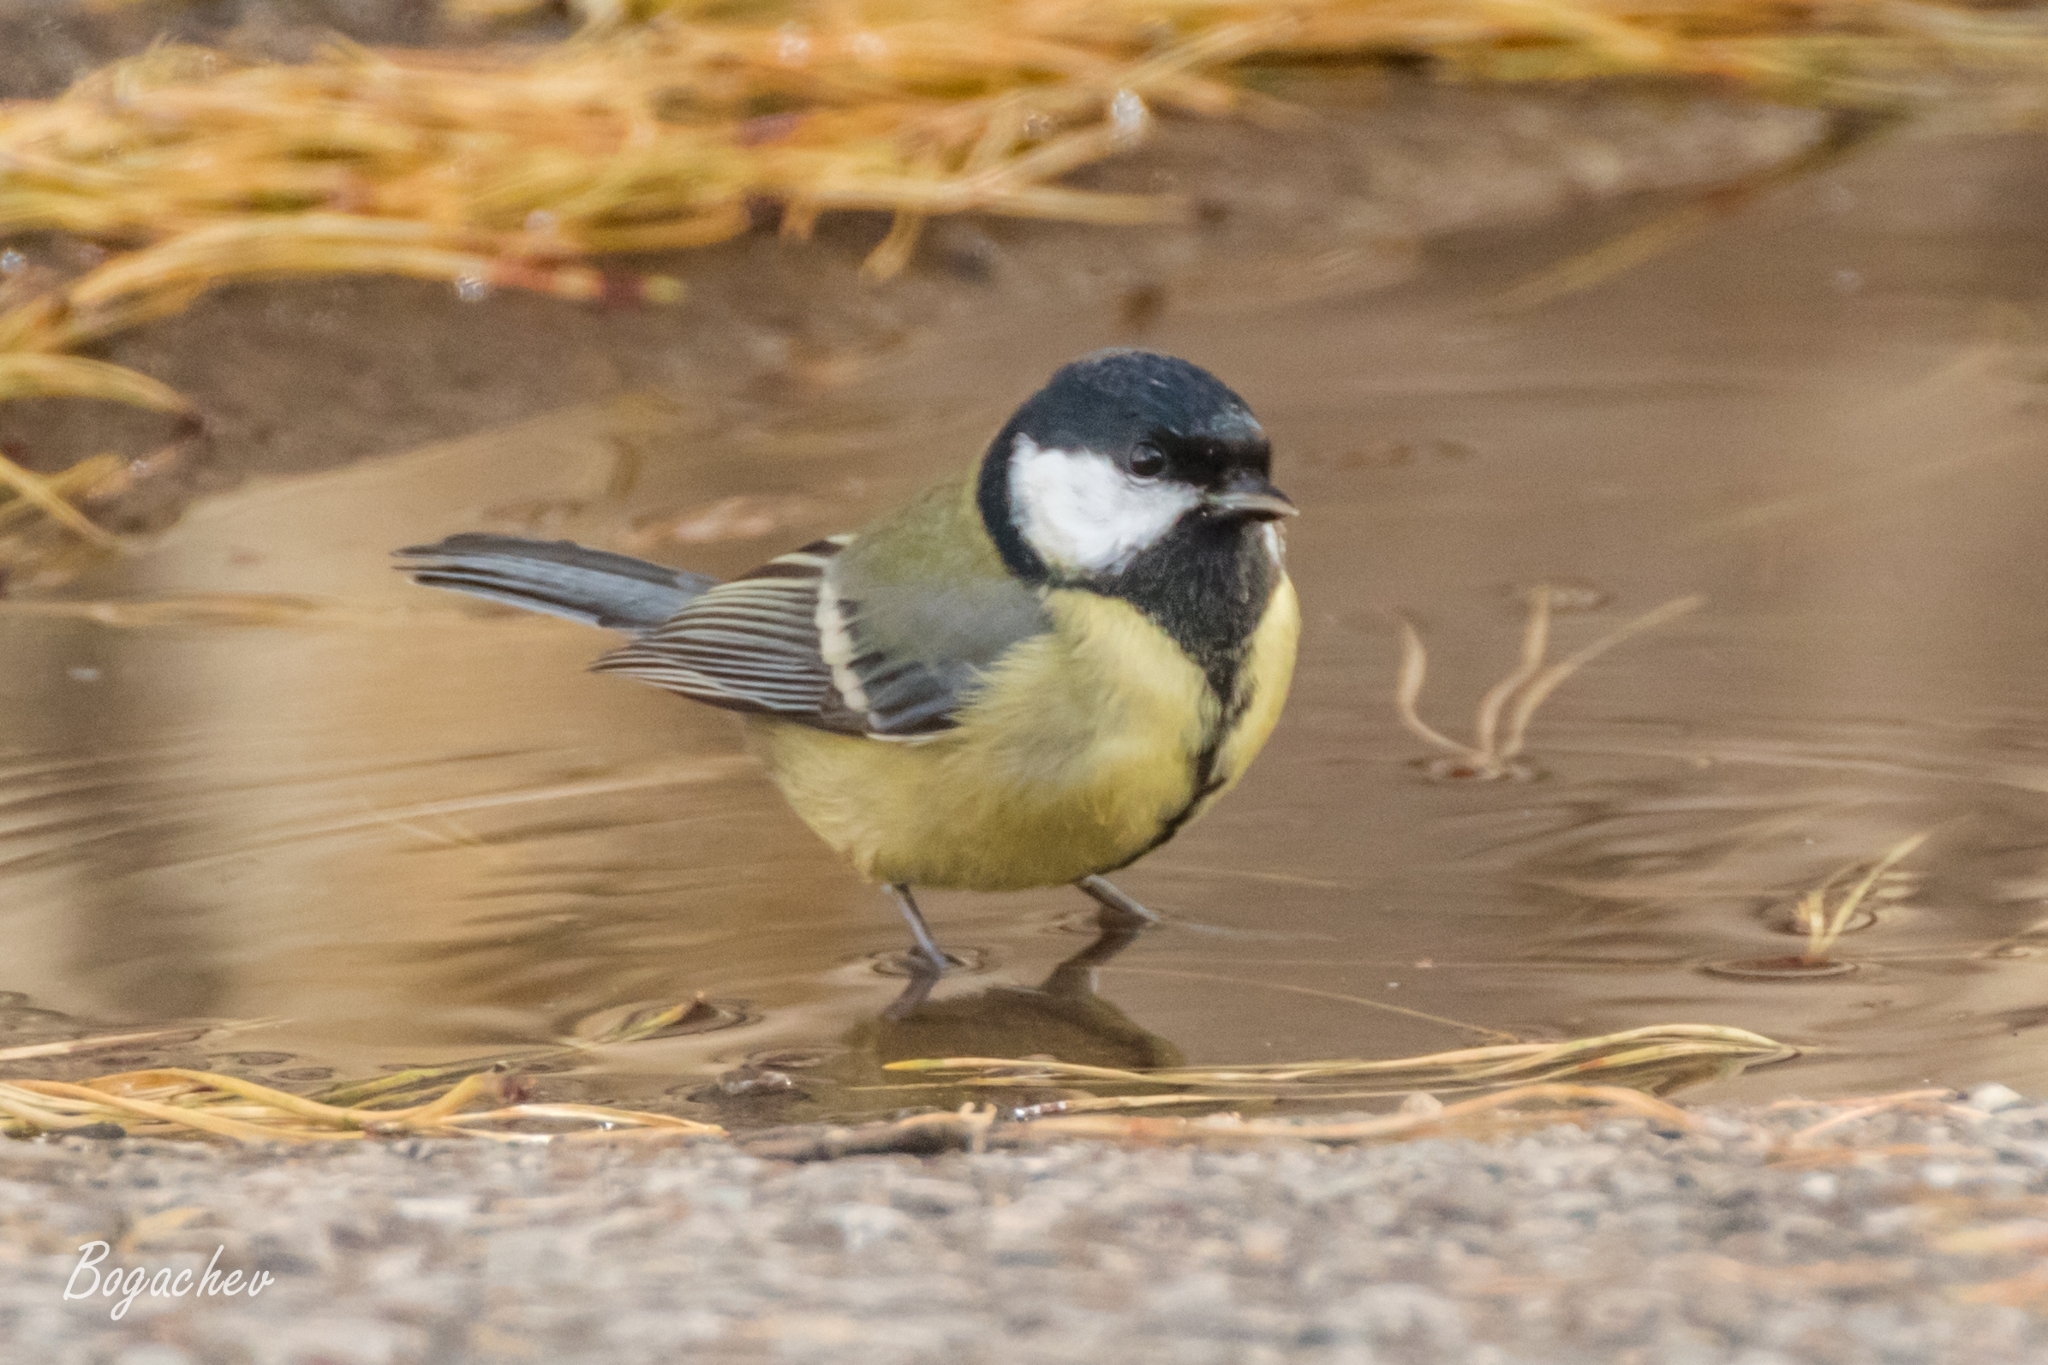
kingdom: Animalia
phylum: Chordata
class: Aves
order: Passeriformes
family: Paridae
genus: Parus
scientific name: Parus major
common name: Great tit
